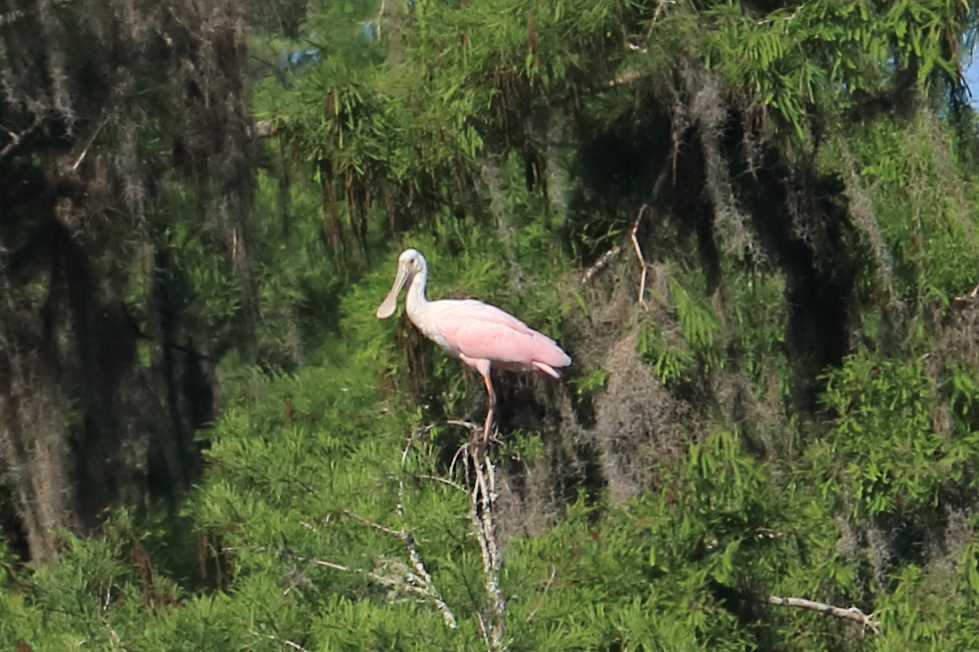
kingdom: Animalia
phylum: Chordata
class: Aves
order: Pelecaniformes
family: Threskiornithidae
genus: Platalea
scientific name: Platalea ajaja
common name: Roseate spoonbill
